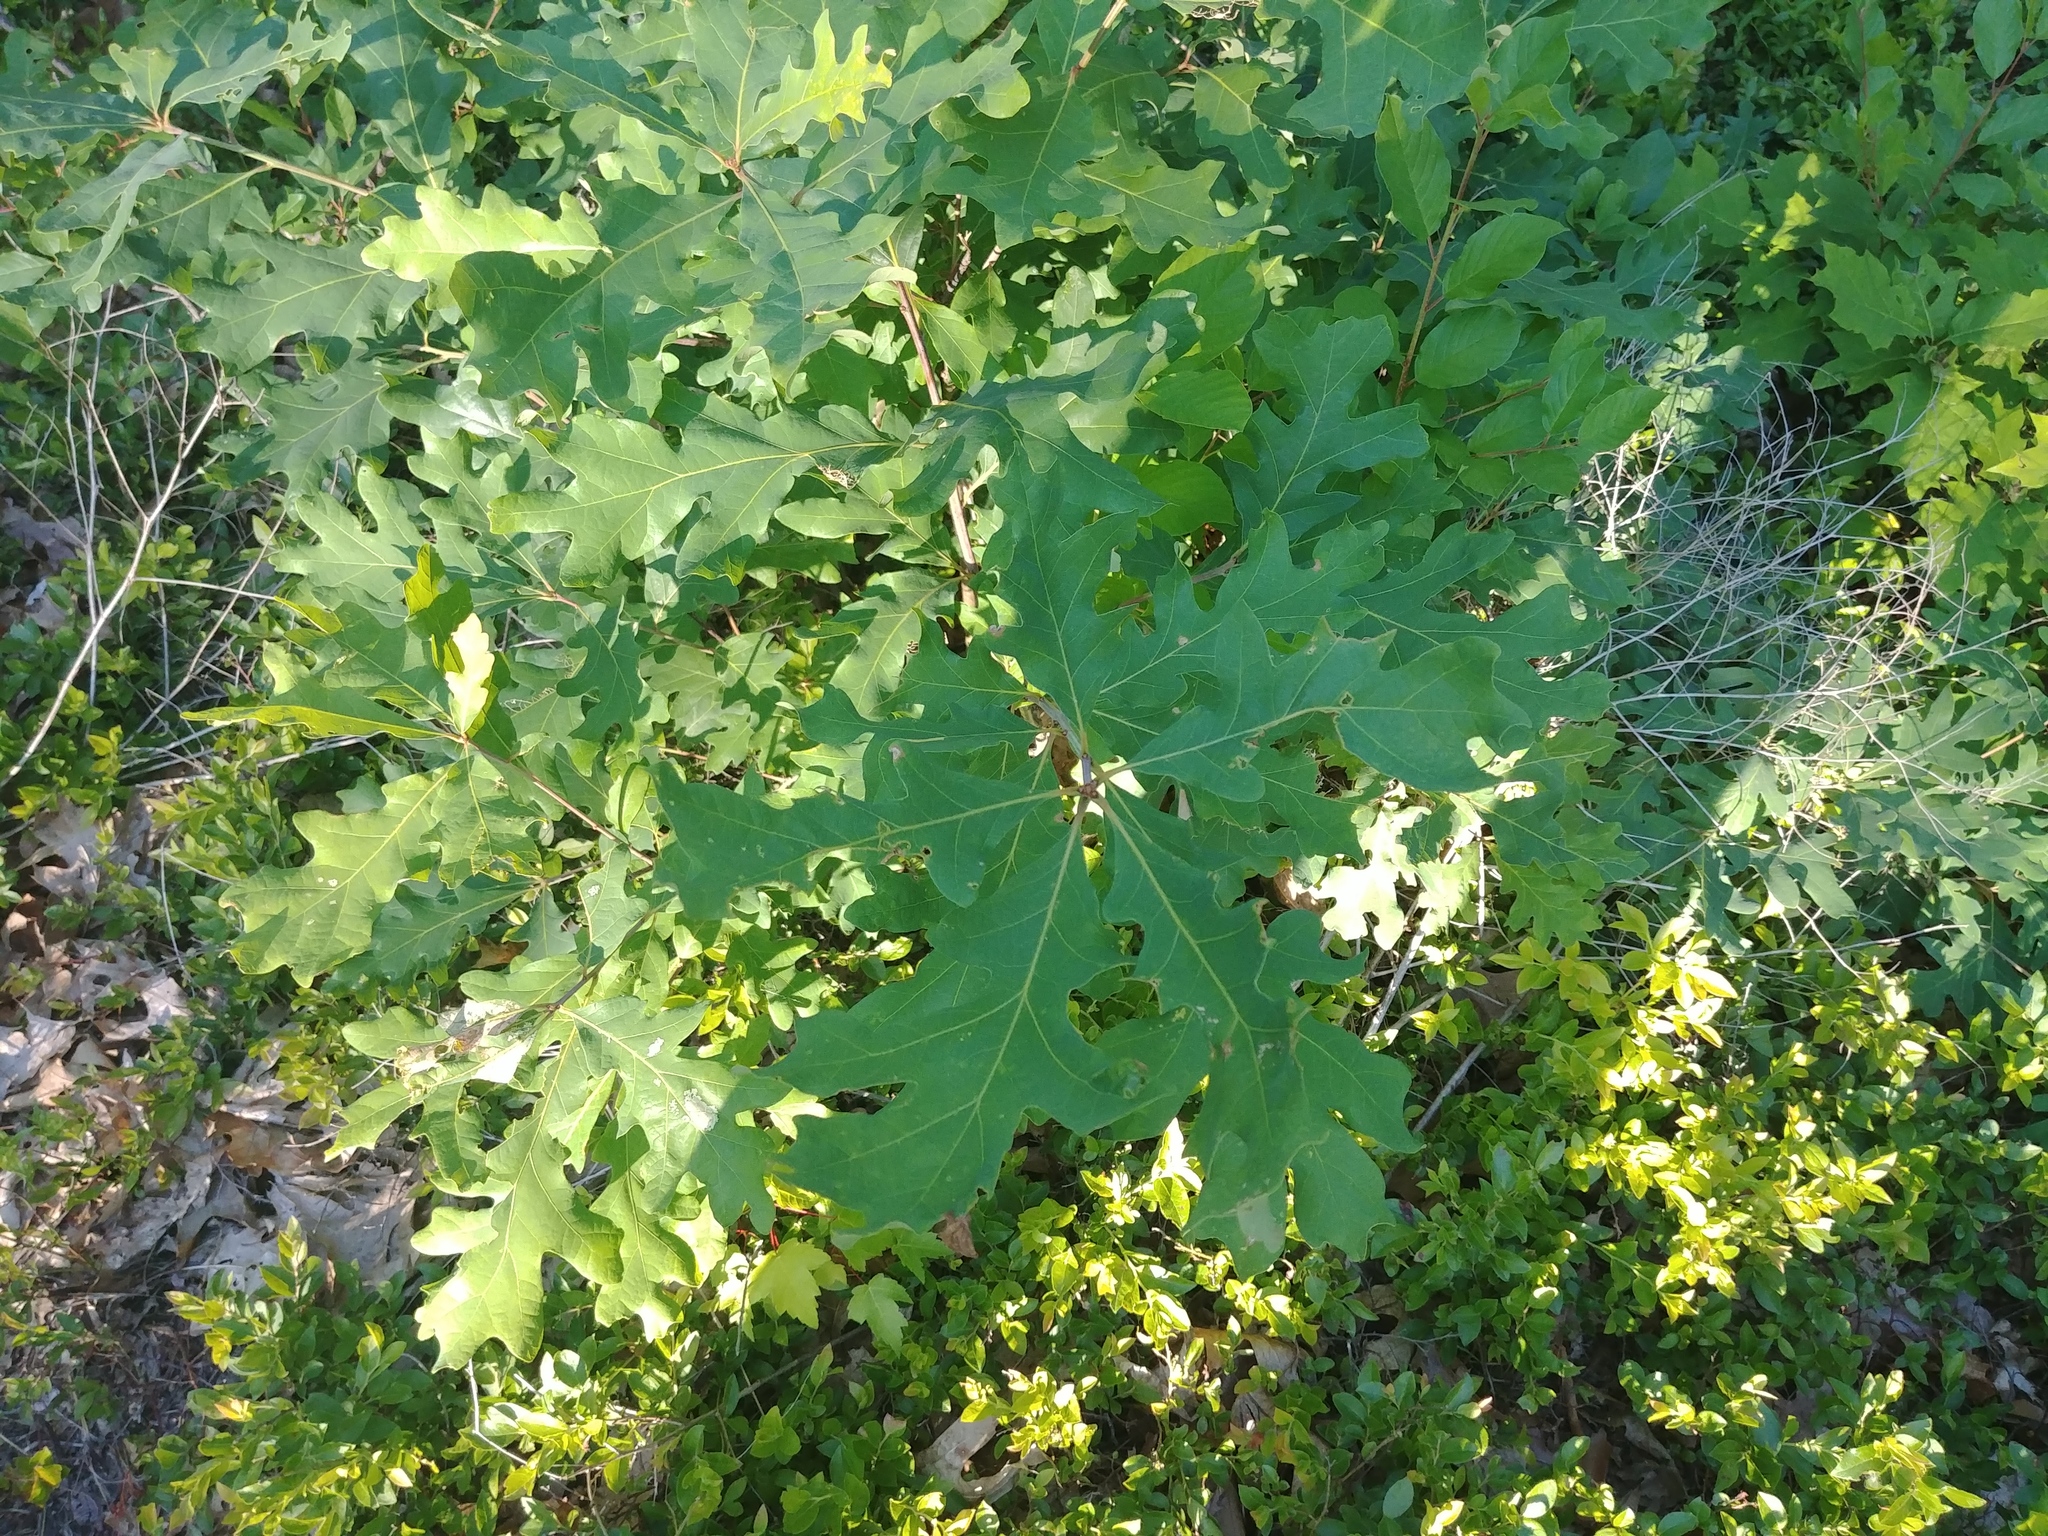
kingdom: Animalia
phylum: Arthropoda
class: Insecta
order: Hymenoptera
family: Cynipidae
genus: Callirhytis
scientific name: Callirhytis
